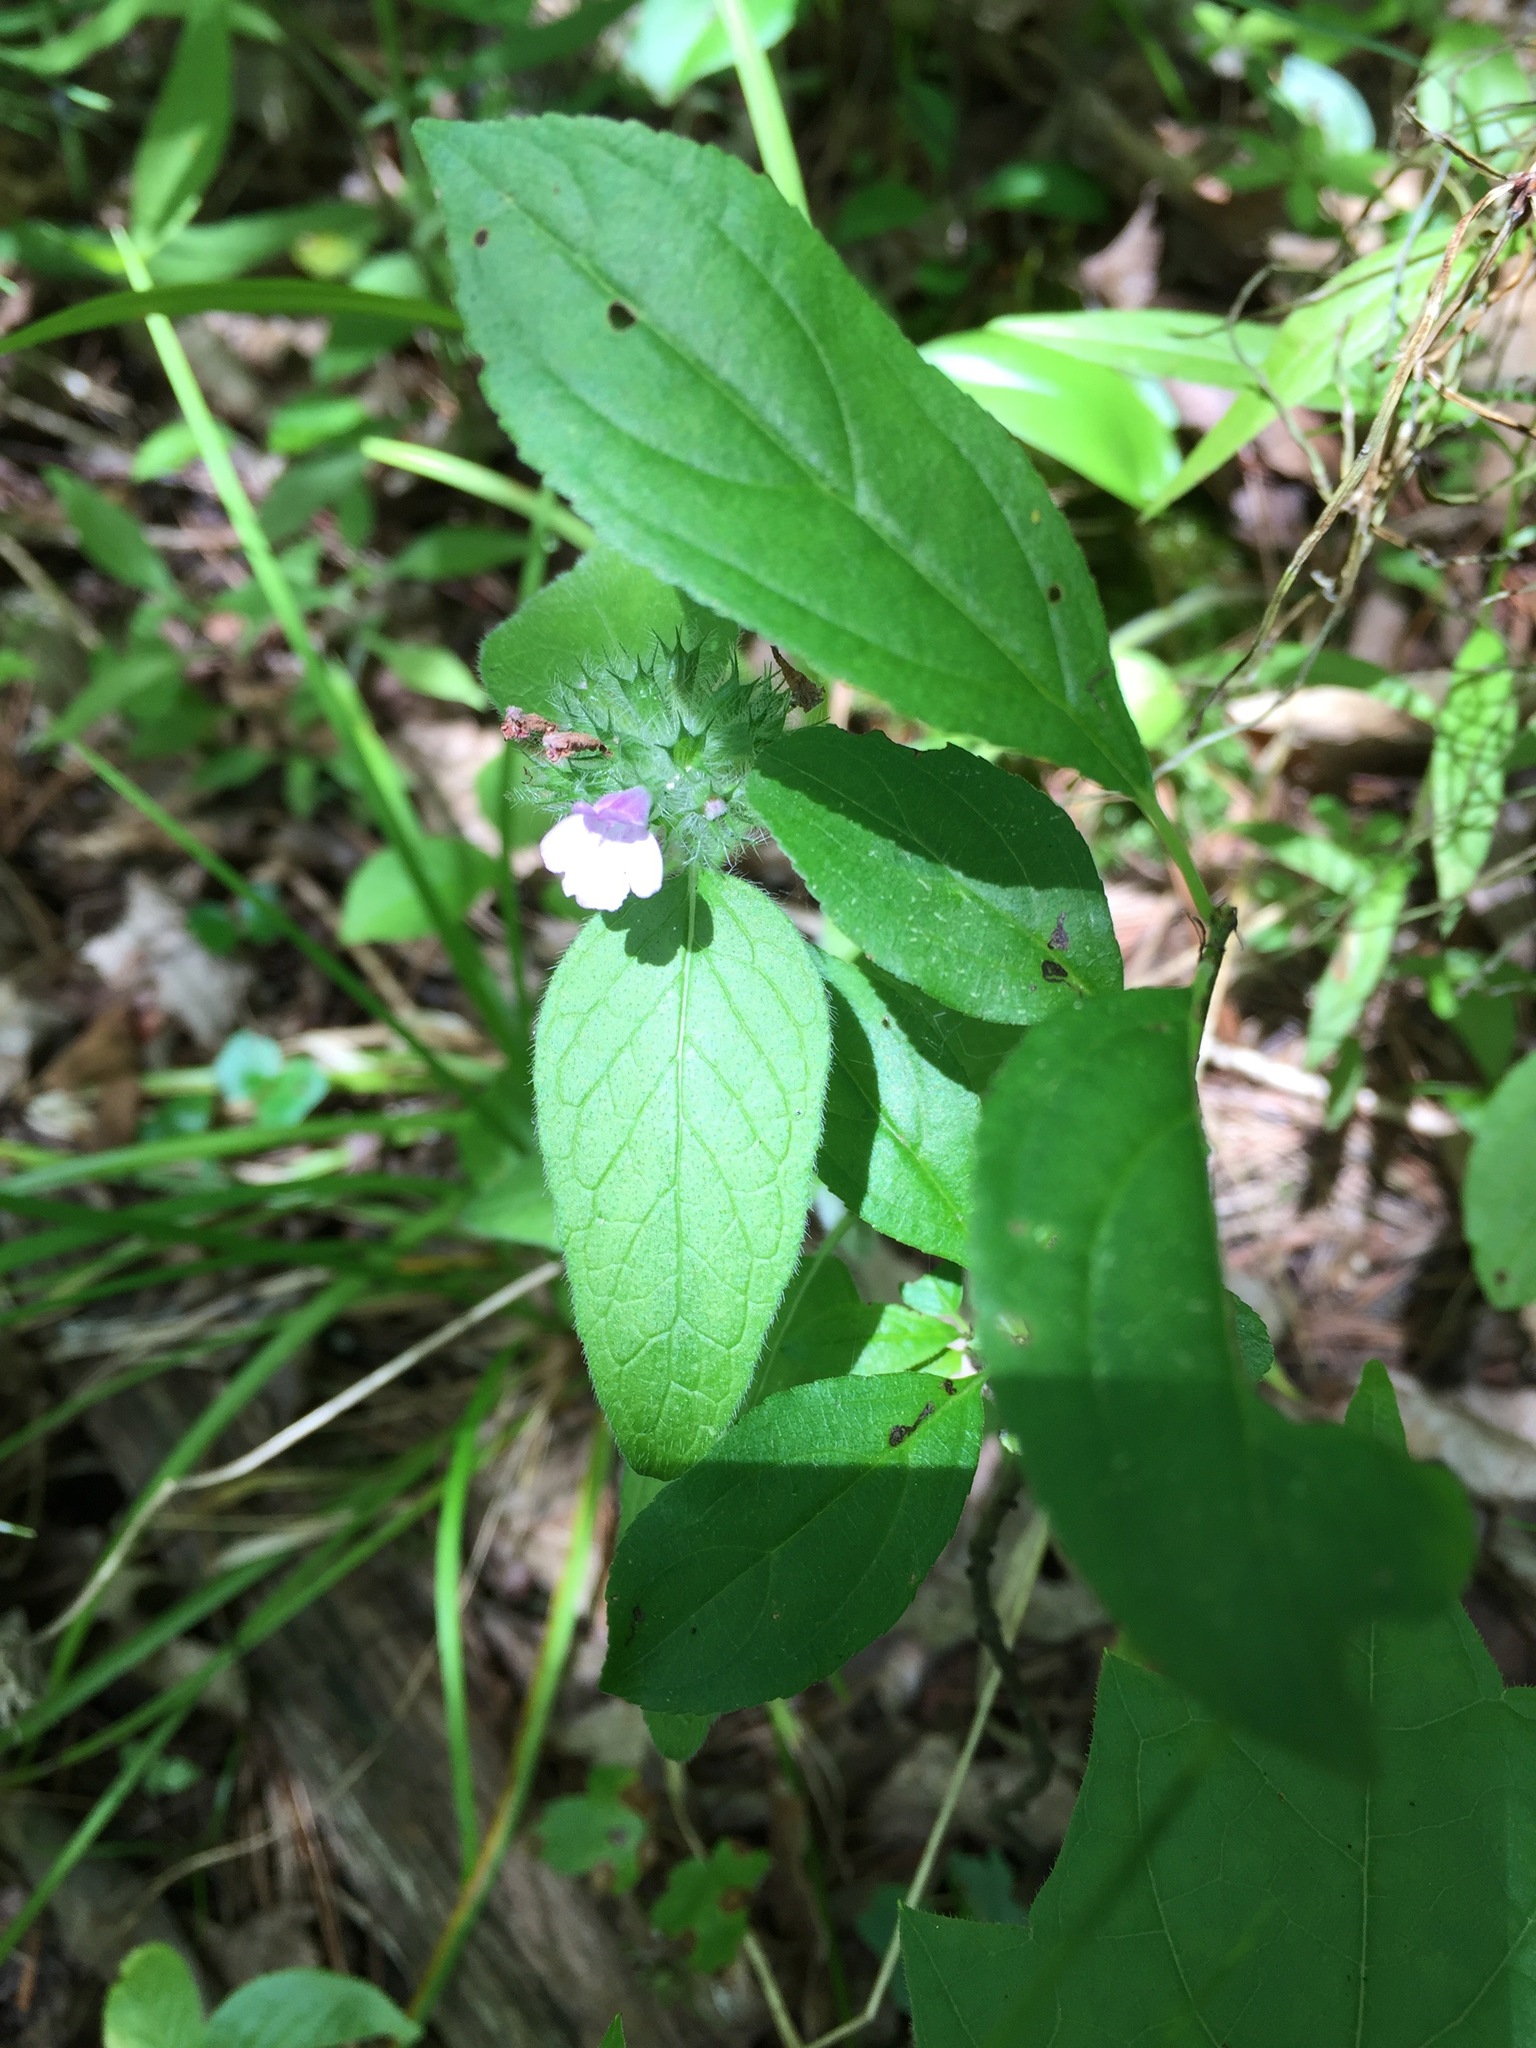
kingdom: Plantae
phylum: Tracheophyta
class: Magnoliopsida
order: Lamiales
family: Lamiaceae
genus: Clinopodium
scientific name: Clinopodium vulgare
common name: Wild basil
